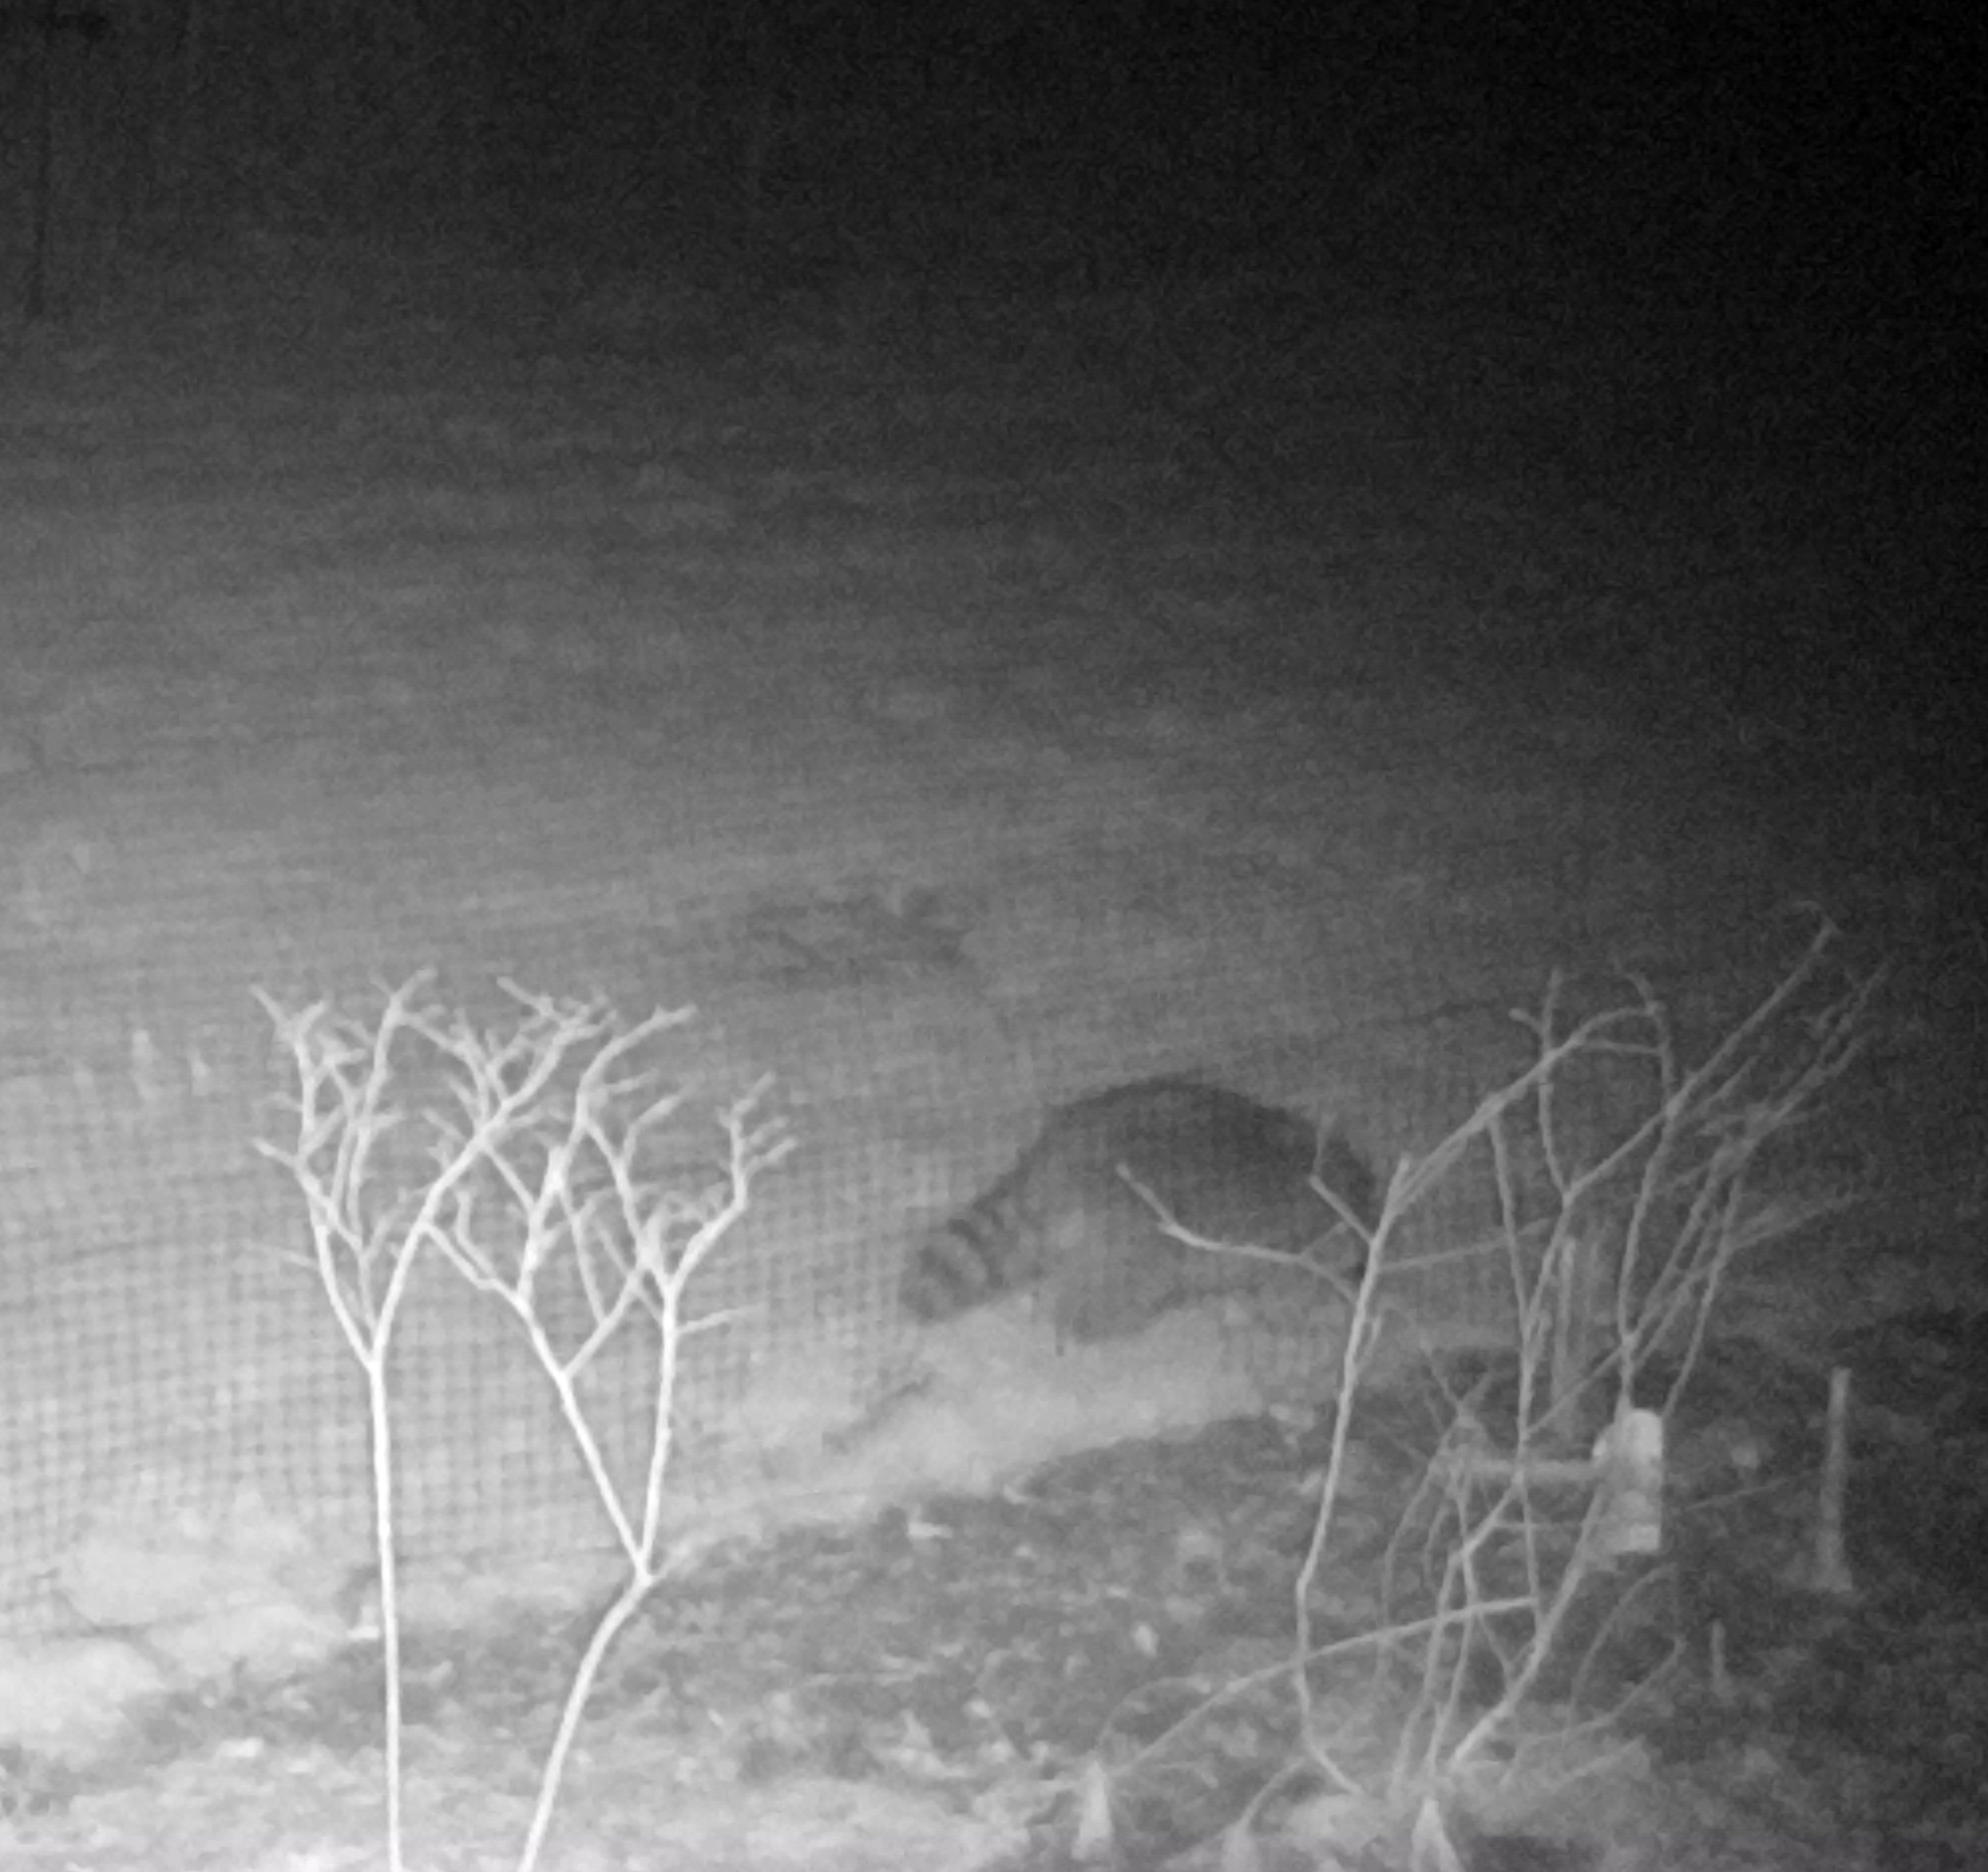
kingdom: Animalia
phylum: Chordata
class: Mammalia
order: Carnivora
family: Procyonidae
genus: Procyon
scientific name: Procyon lotor
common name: Raccoon
